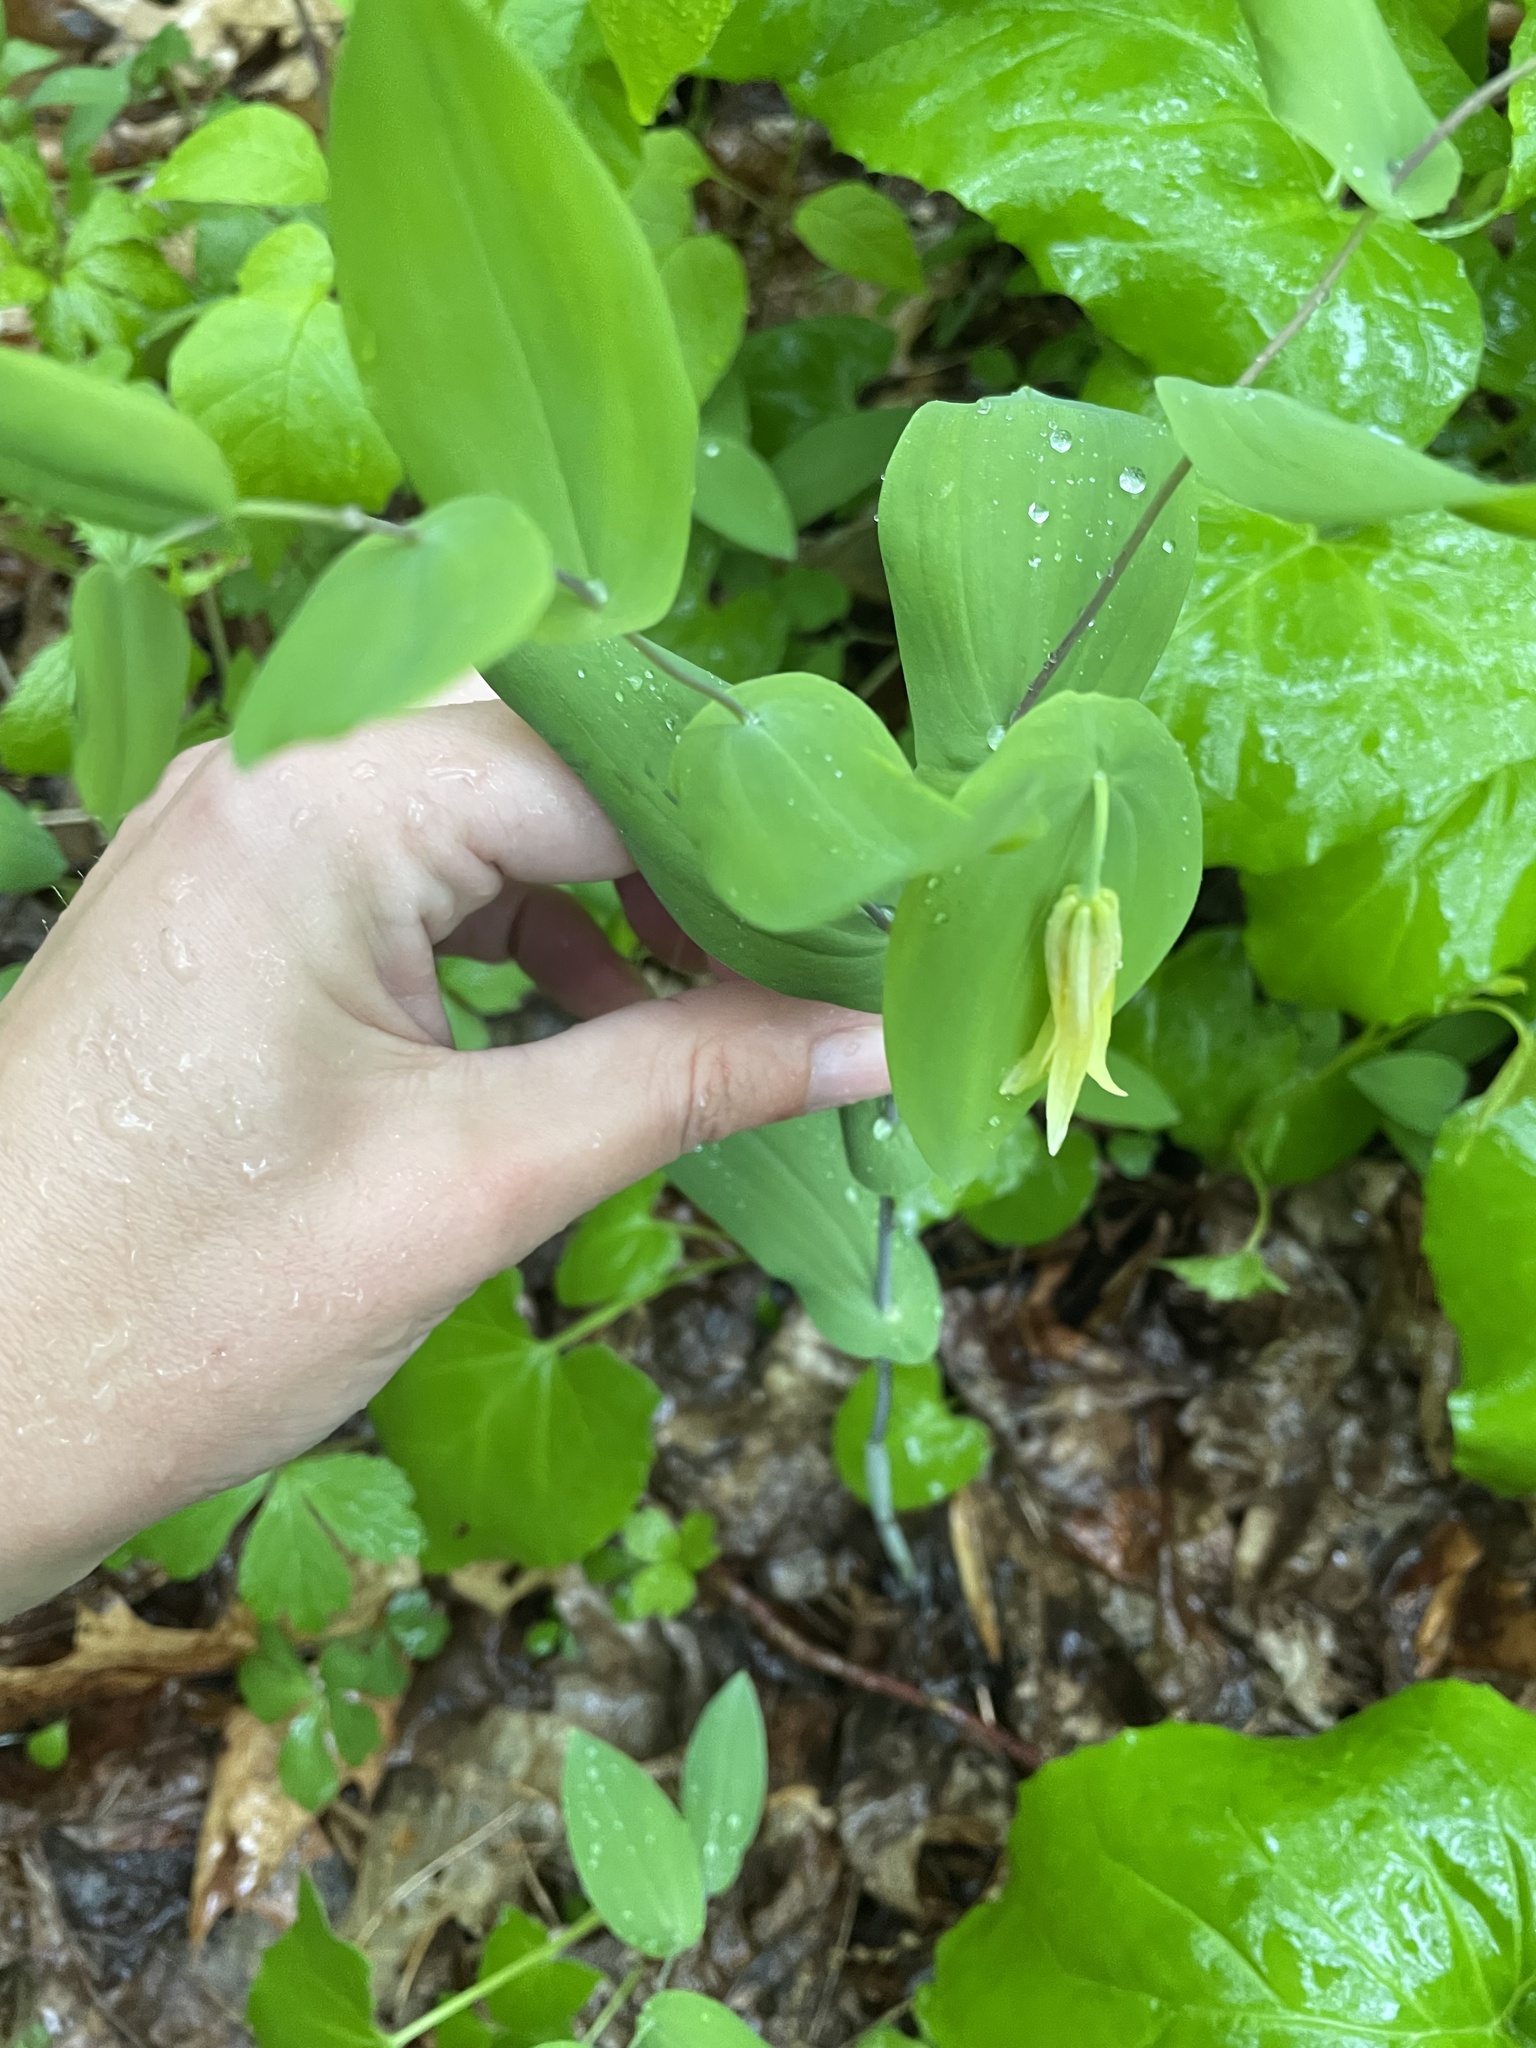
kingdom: Plantae
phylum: Tracheophyta
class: Liliopsida
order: Liliales
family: Colchicaceae
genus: Uvularia
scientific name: Uvularia perfoliata
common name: Perfoliate bellwort
